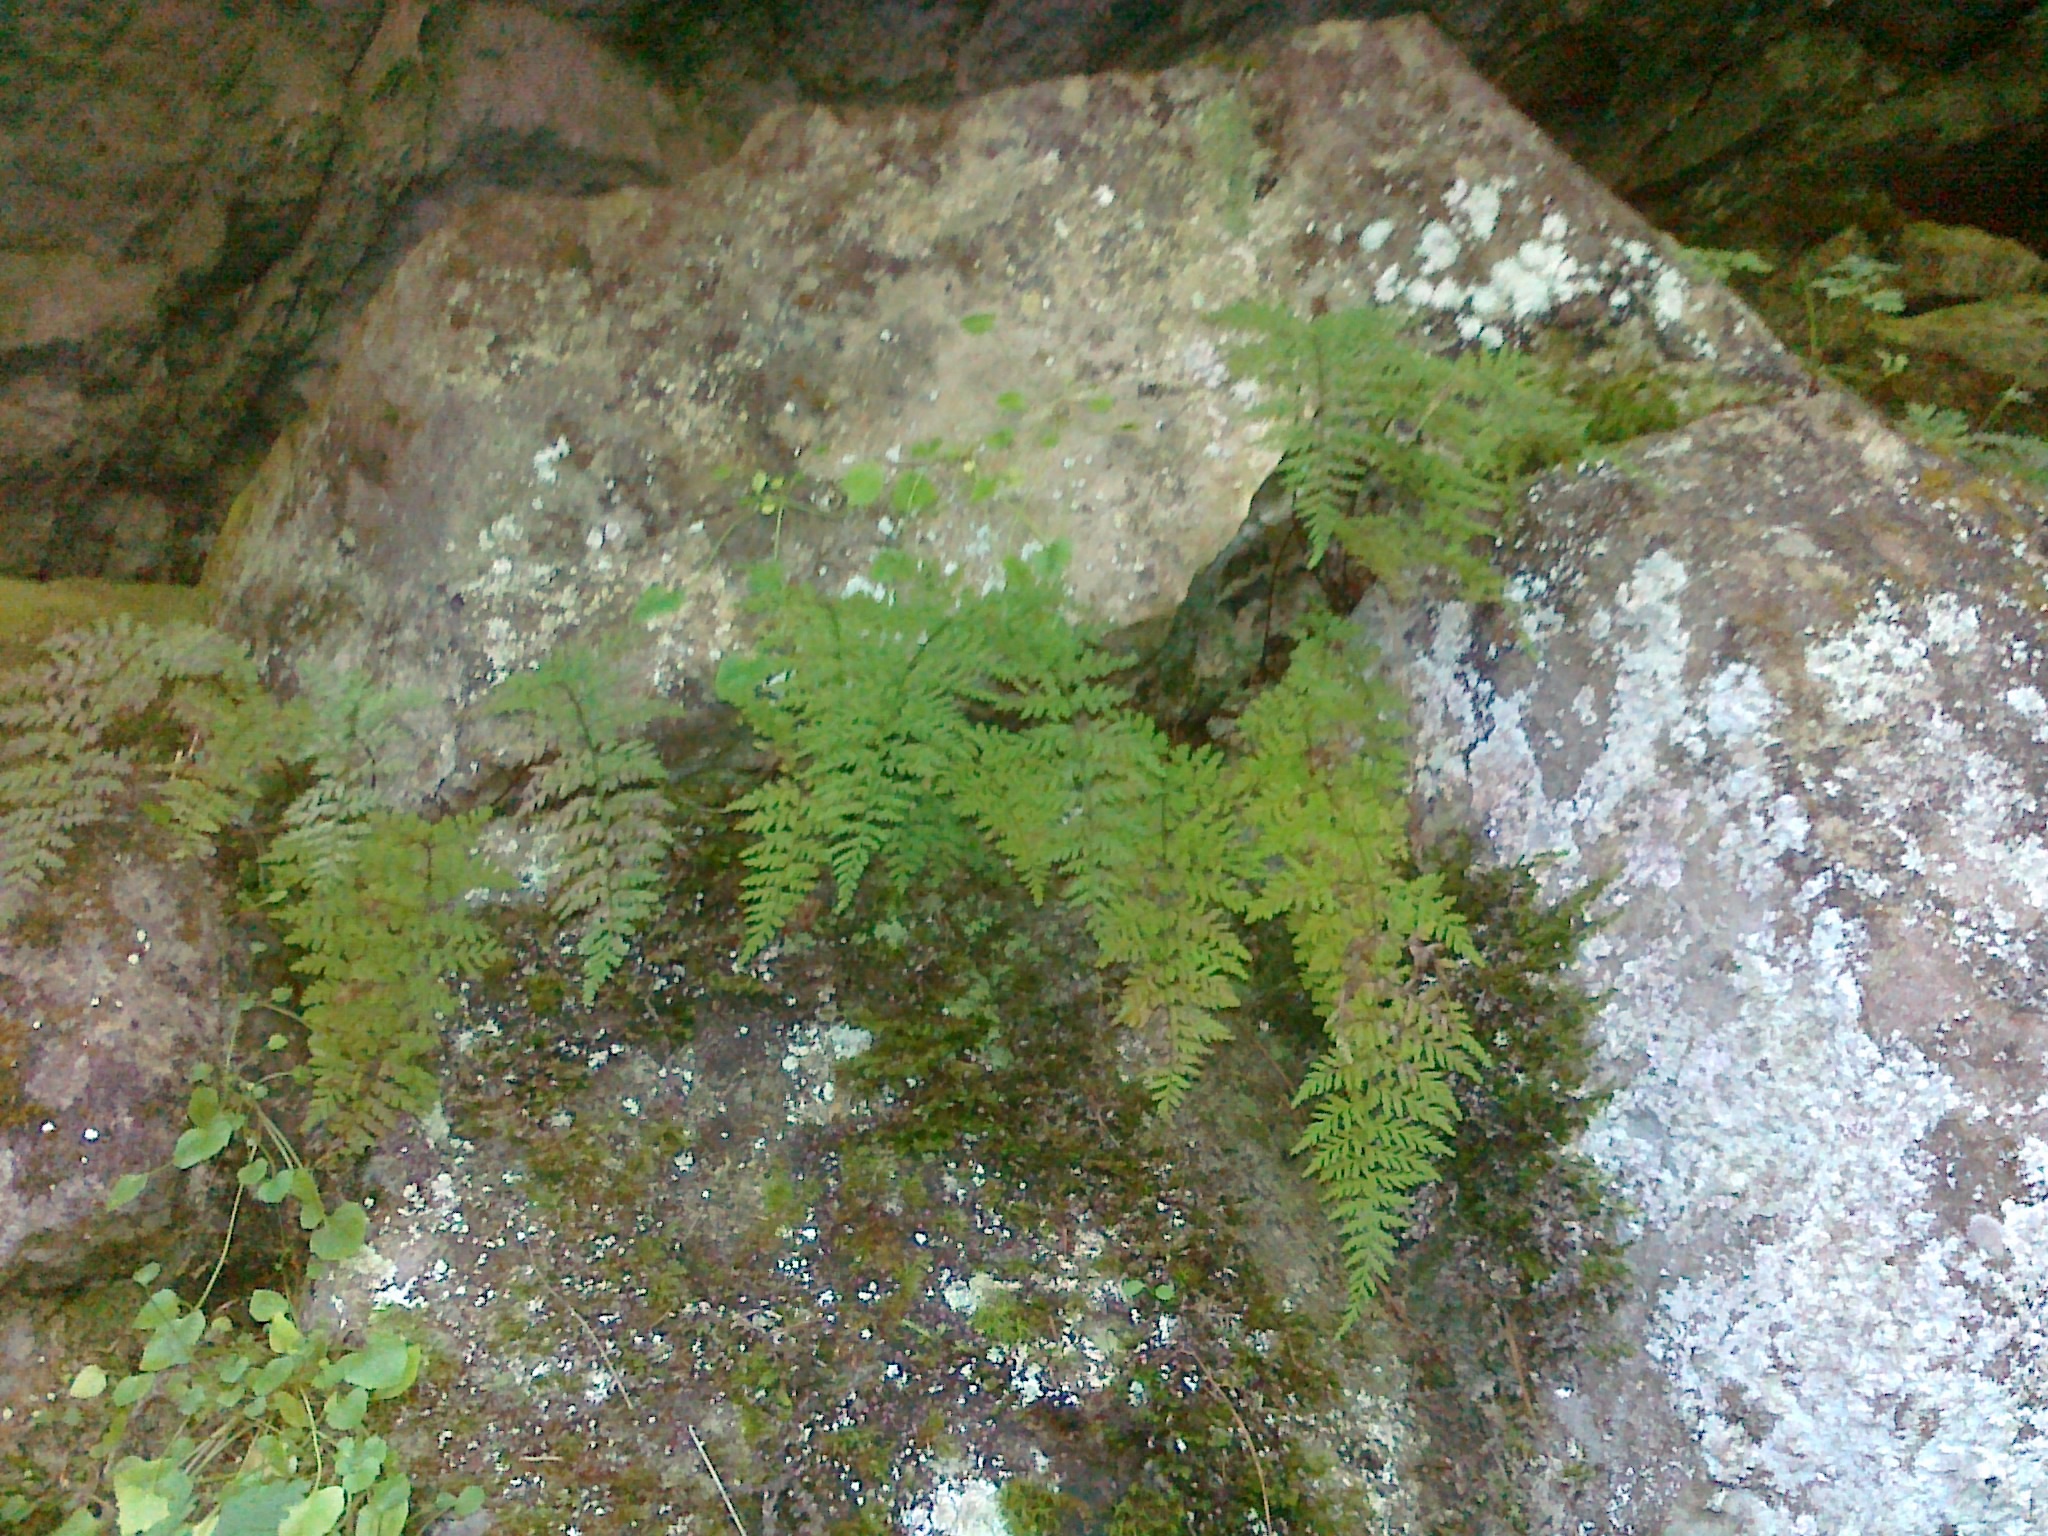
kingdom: Plantae
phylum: Tracheophyta
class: Polypodiopsida
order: Polypodiales
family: Cystopteridaceae
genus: Cystopteris
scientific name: Cystopteris fragilis
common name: Brittle bladder fern
